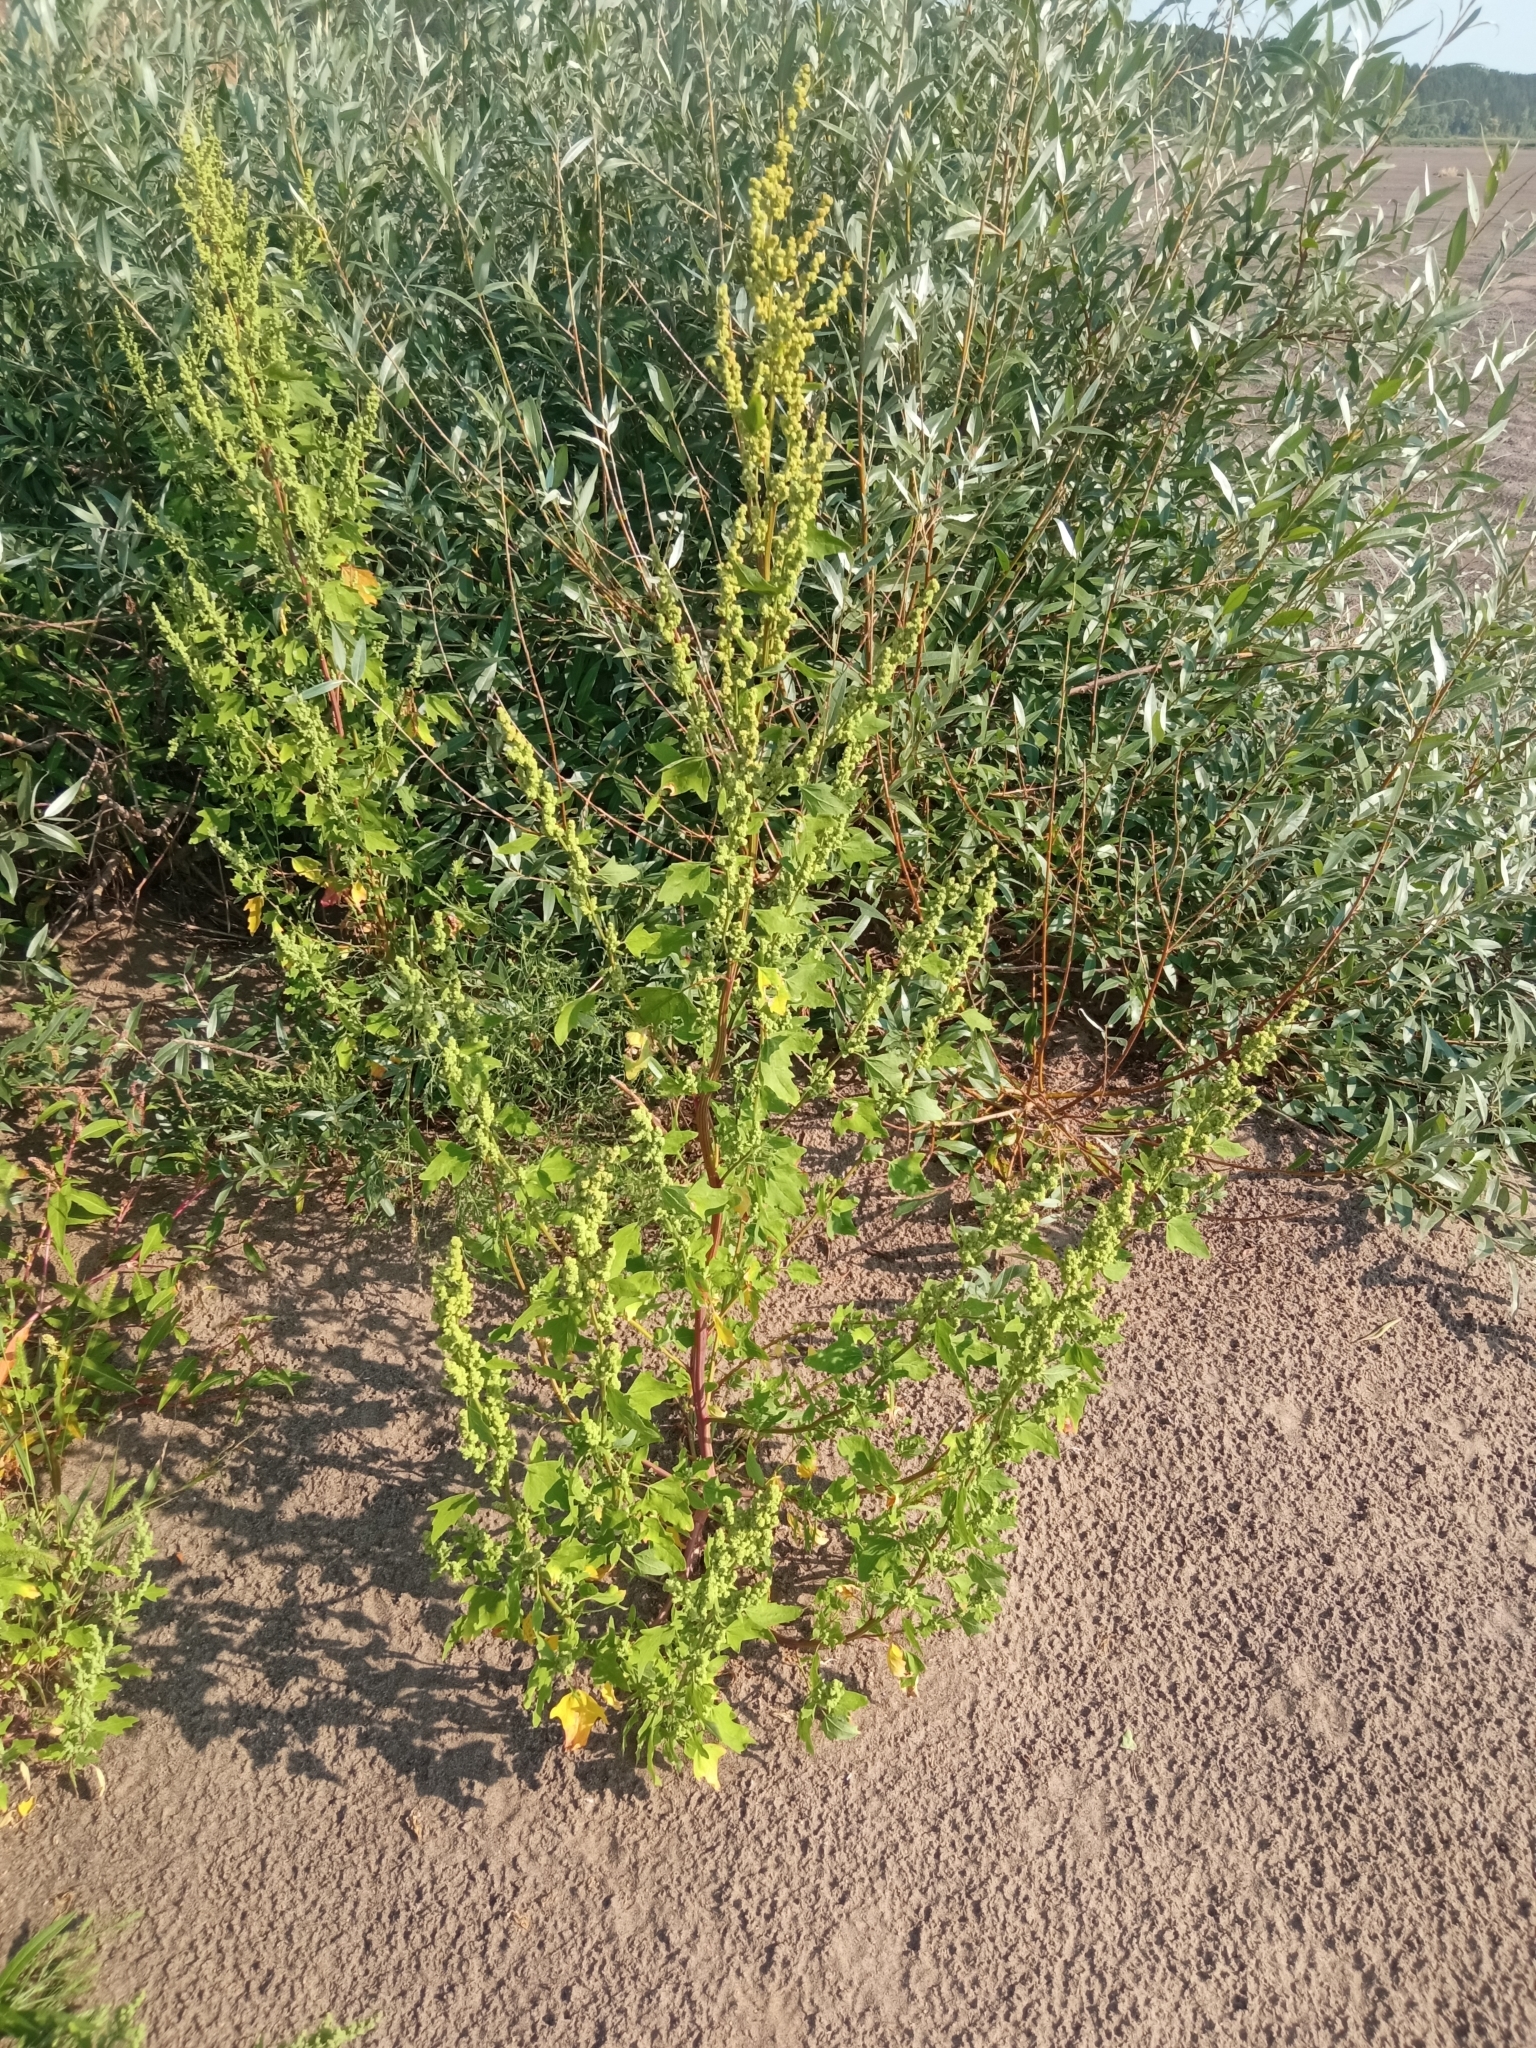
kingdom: Plantae
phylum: Tracheophyta
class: Magnoliopsida
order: Caryophyllales
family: Amaranthaceae
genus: Chenopodium
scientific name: Chenopodium album
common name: Fat-hen
